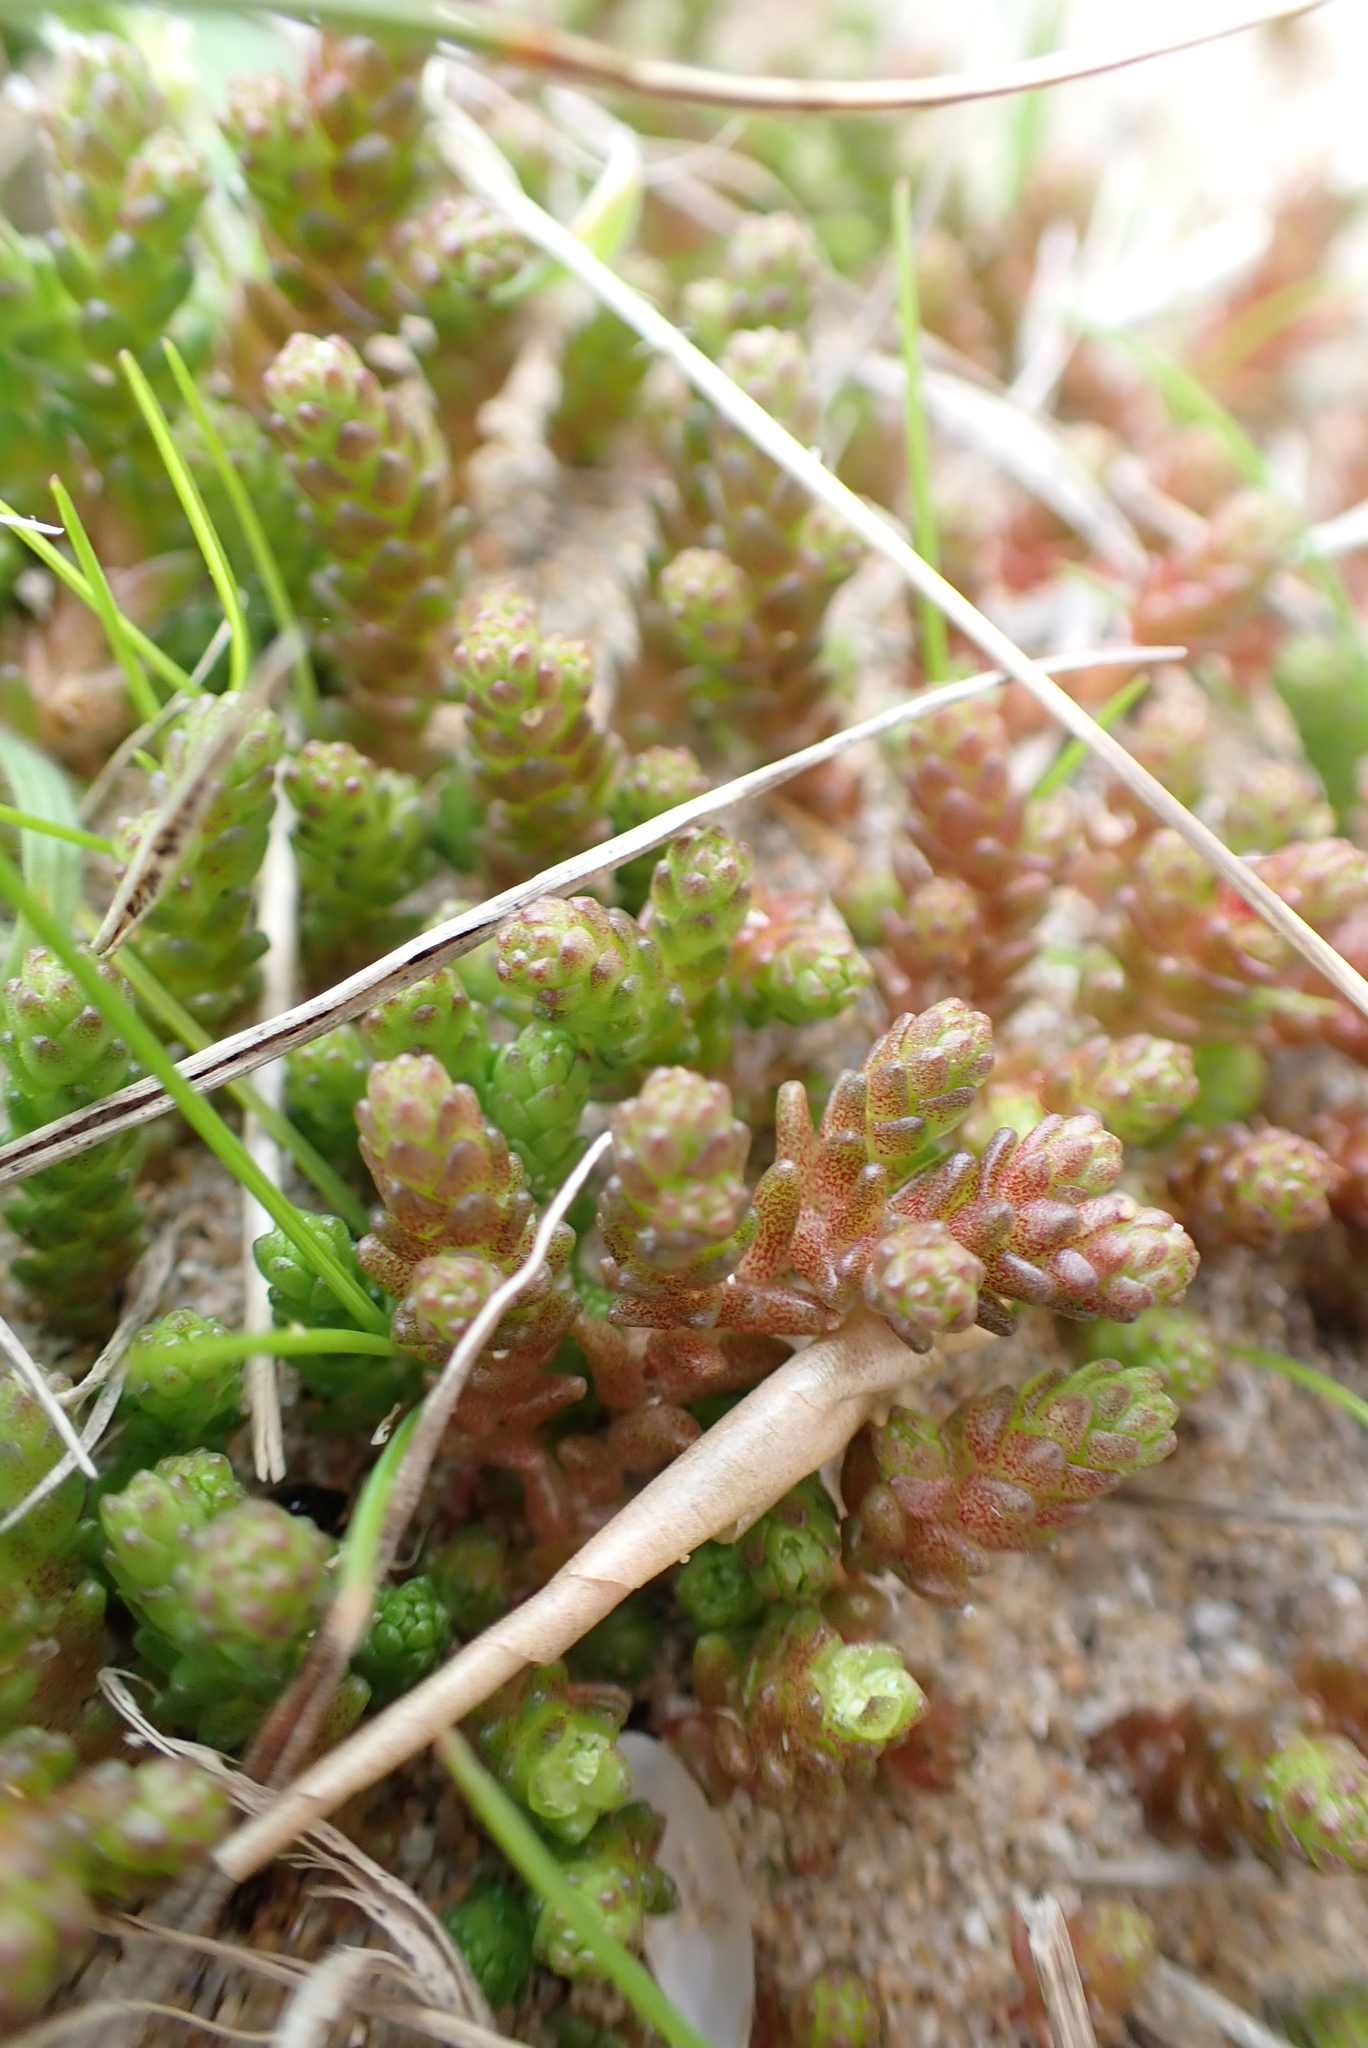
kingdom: Plantae
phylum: Tracheophyta
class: Magnoliopsida
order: Saxifragales
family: Crassulaceae
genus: Sedum
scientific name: Sedum acre
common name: Biting stonecrop
